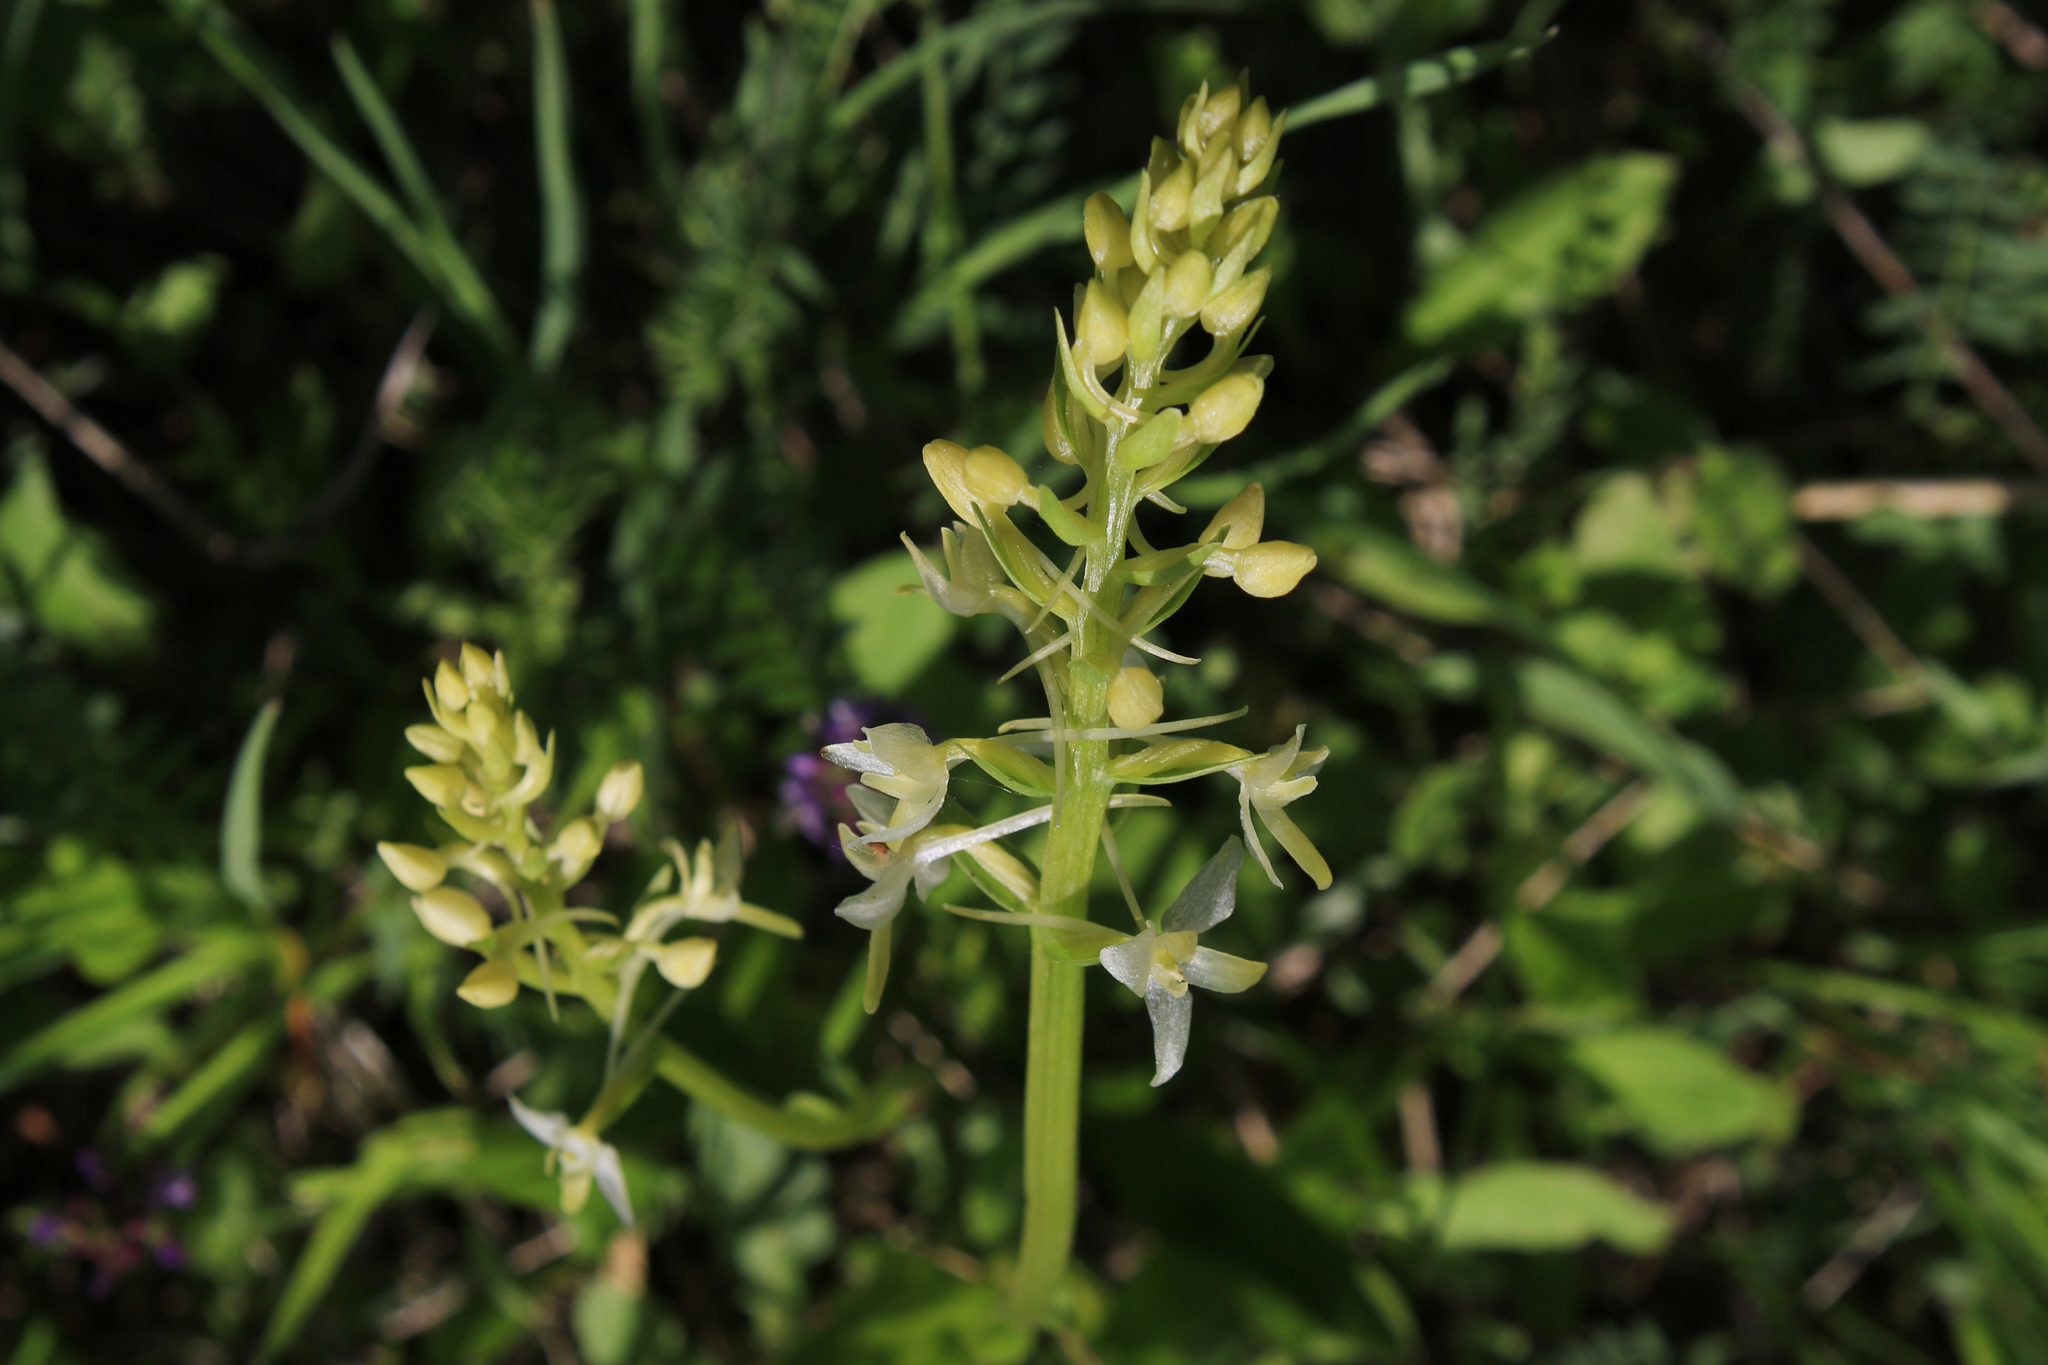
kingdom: Plantae
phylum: Tracheophyta
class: Liliopsida
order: Asparagales
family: Orchidaceae
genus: Platanthera
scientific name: Platanthera bifolia
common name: Lesser butterfly-orchid
